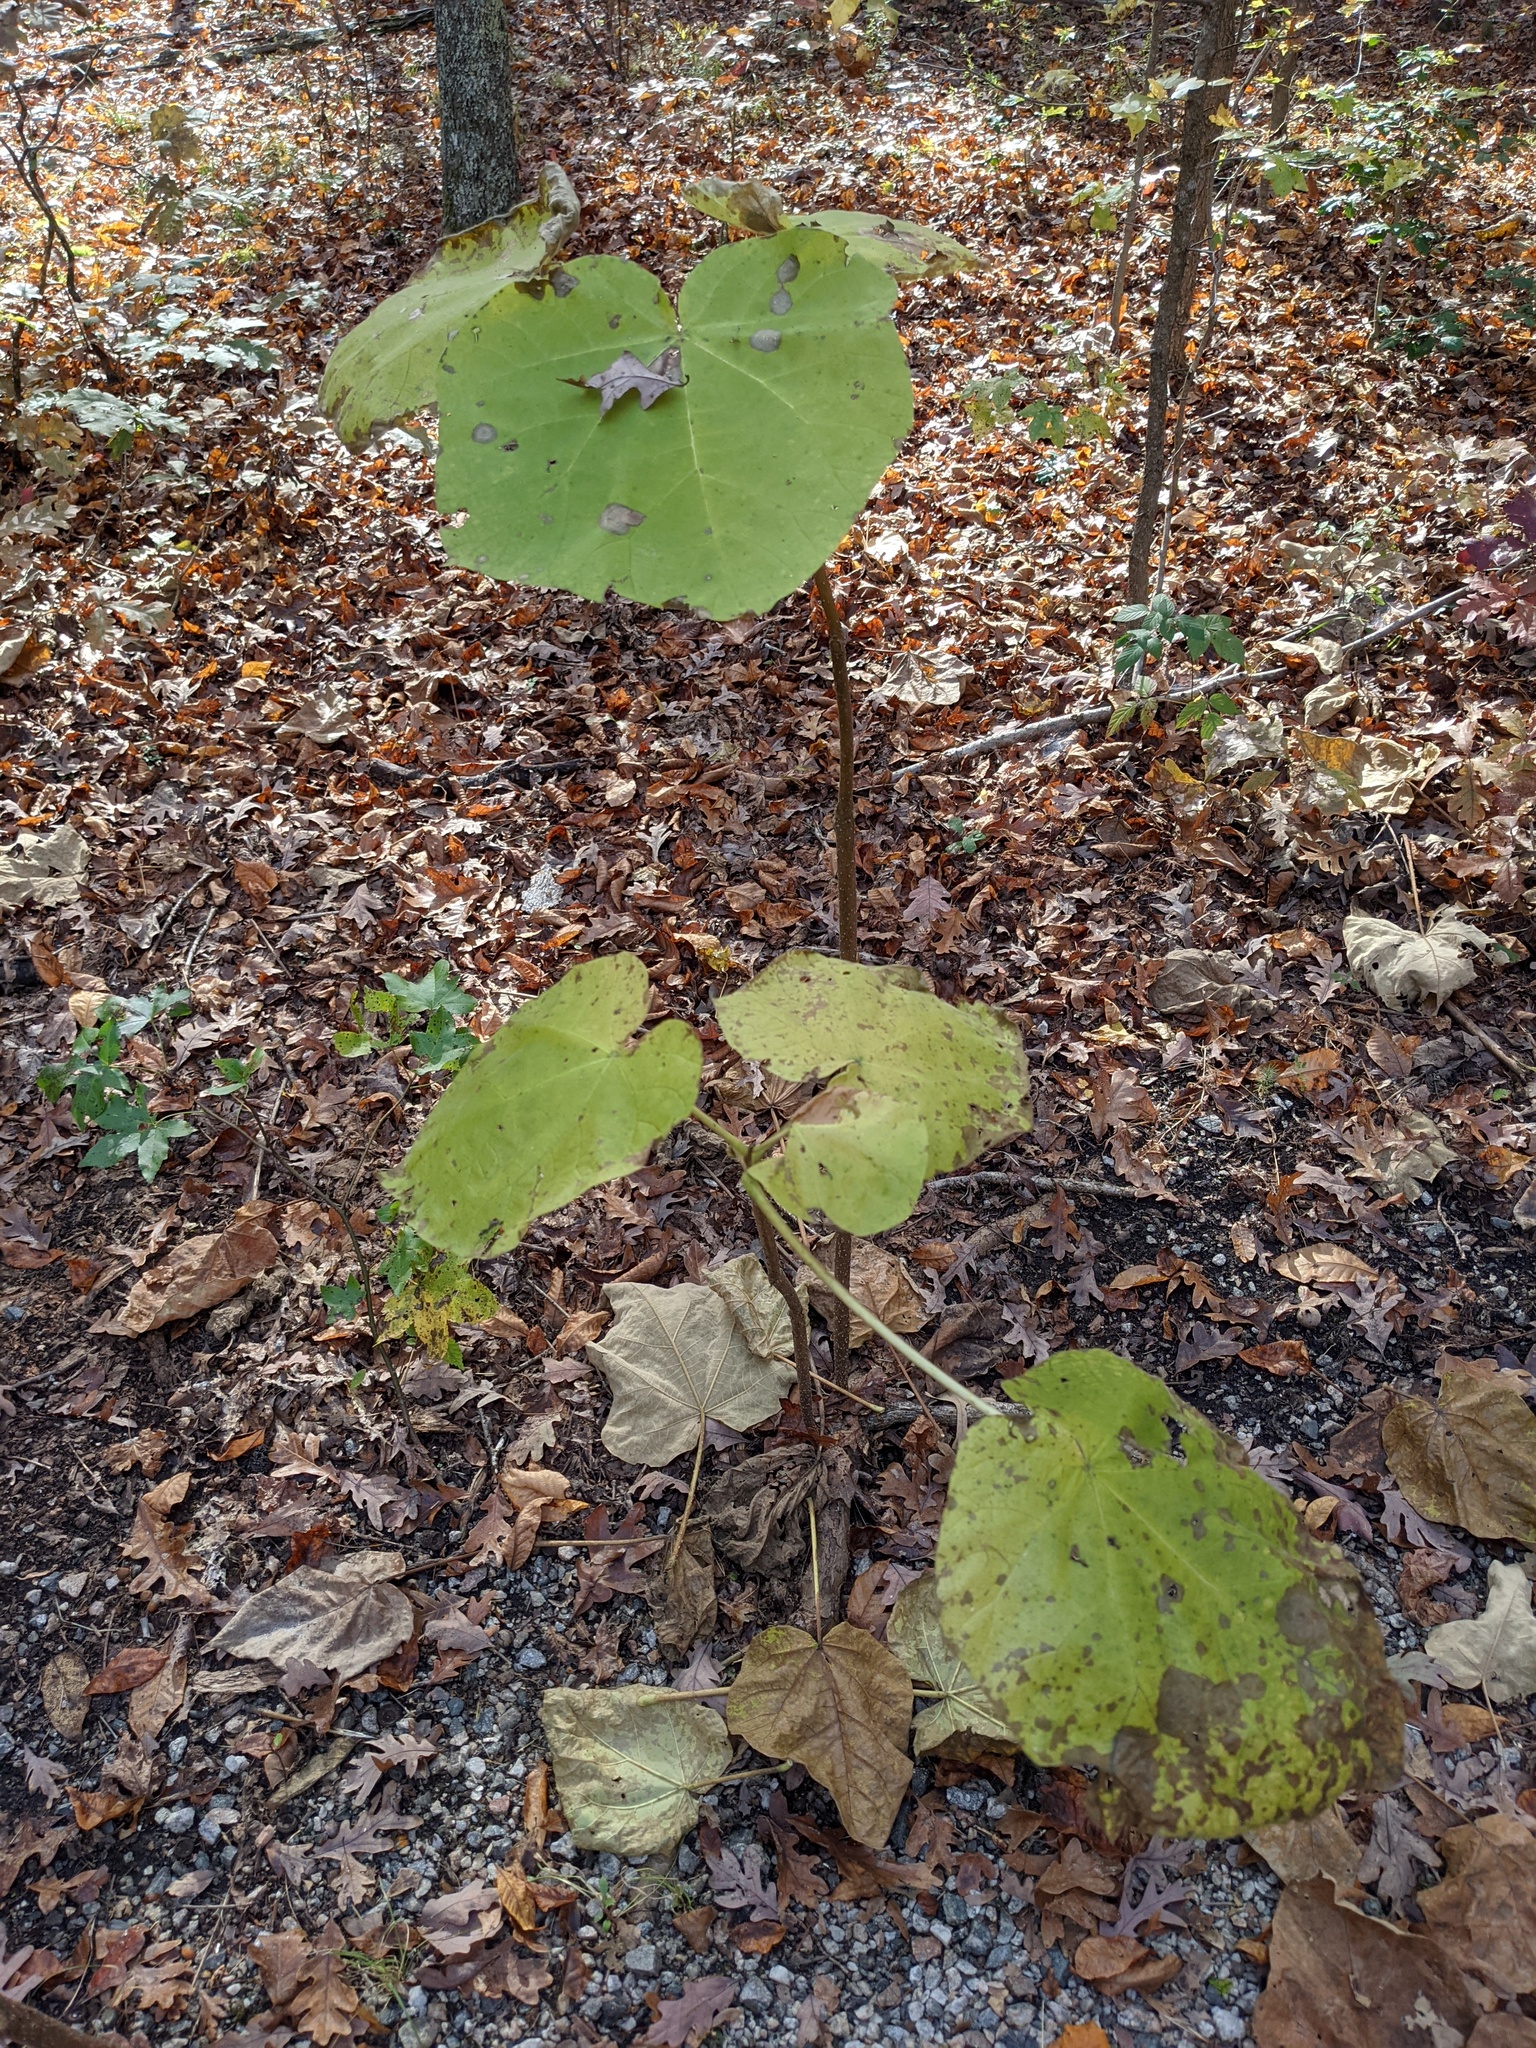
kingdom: Plantae
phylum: Tracheophyta
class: Magnoliopsida
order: Lamiales
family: Paulowniaceae
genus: Paulownia
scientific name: Paulownia tomentosa
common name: Foxglove-tree
